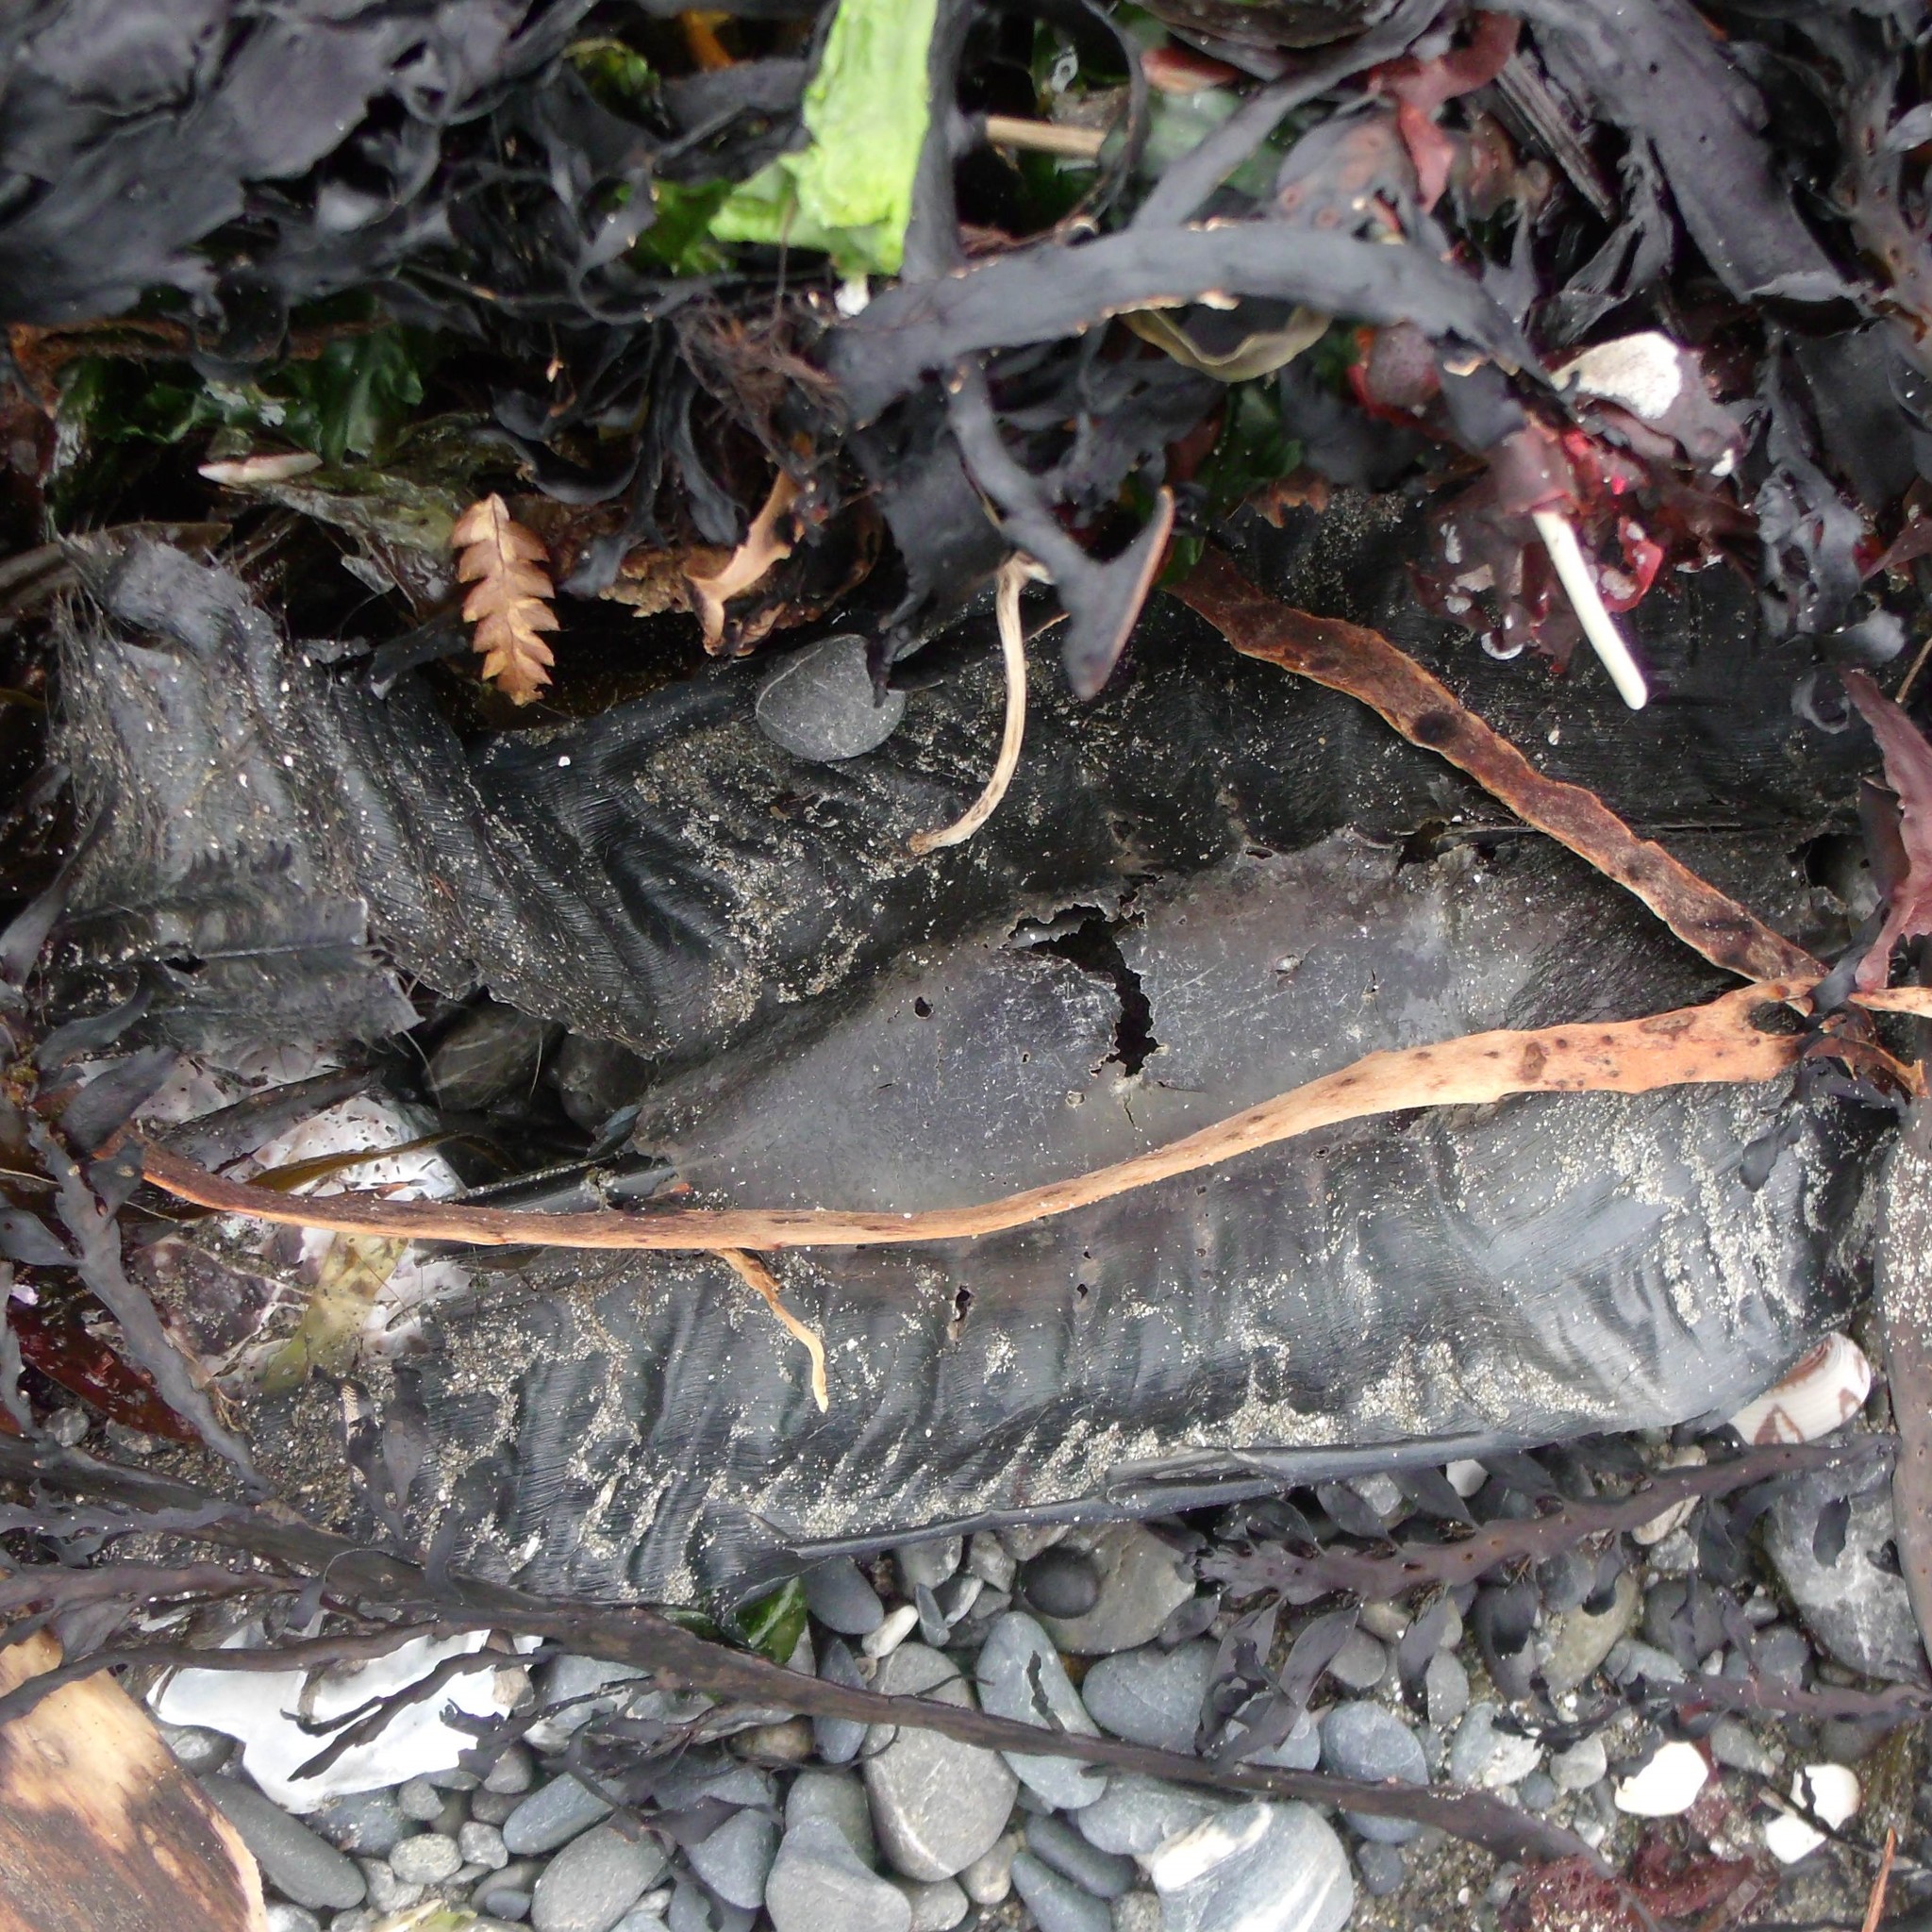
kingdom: Animalia
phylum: Chordata
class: Holocephali
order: Chimaeriformes
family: Callorhinchidae
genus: Callorhinchus
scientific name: Callorhinchus milii
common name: Elephant fish
